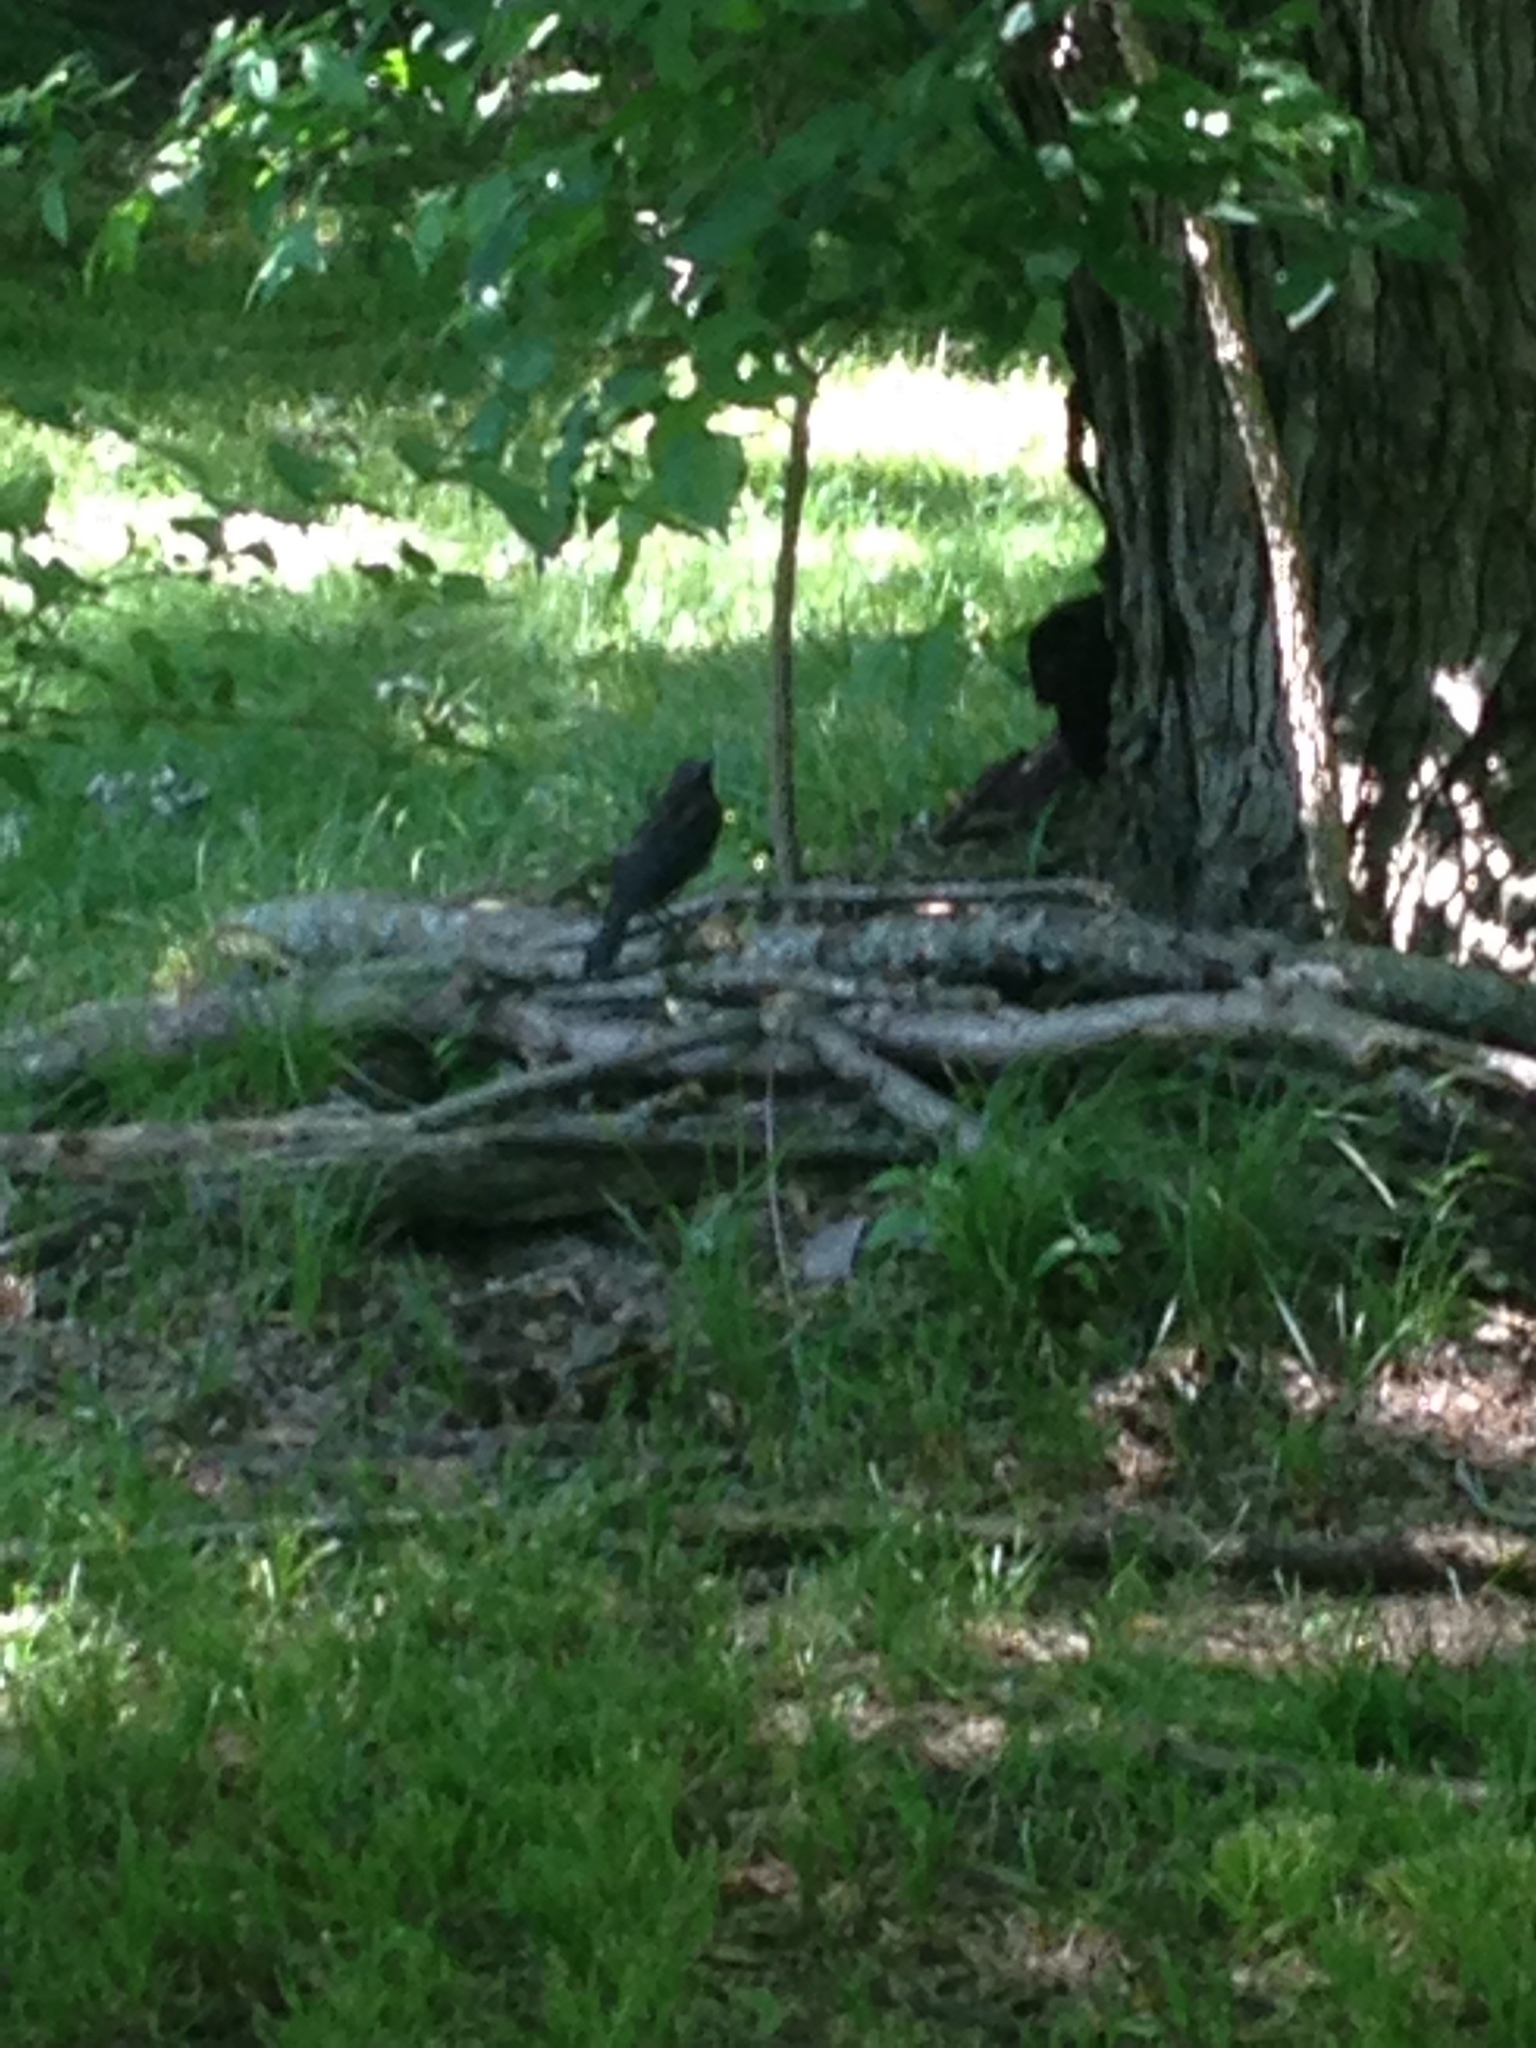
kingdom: Animalia
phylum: Chordata
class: Aves
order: Passeriformes
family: Icteridae
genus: Quiscalus
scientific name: Quiscalus quiscula
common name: Common grackle
